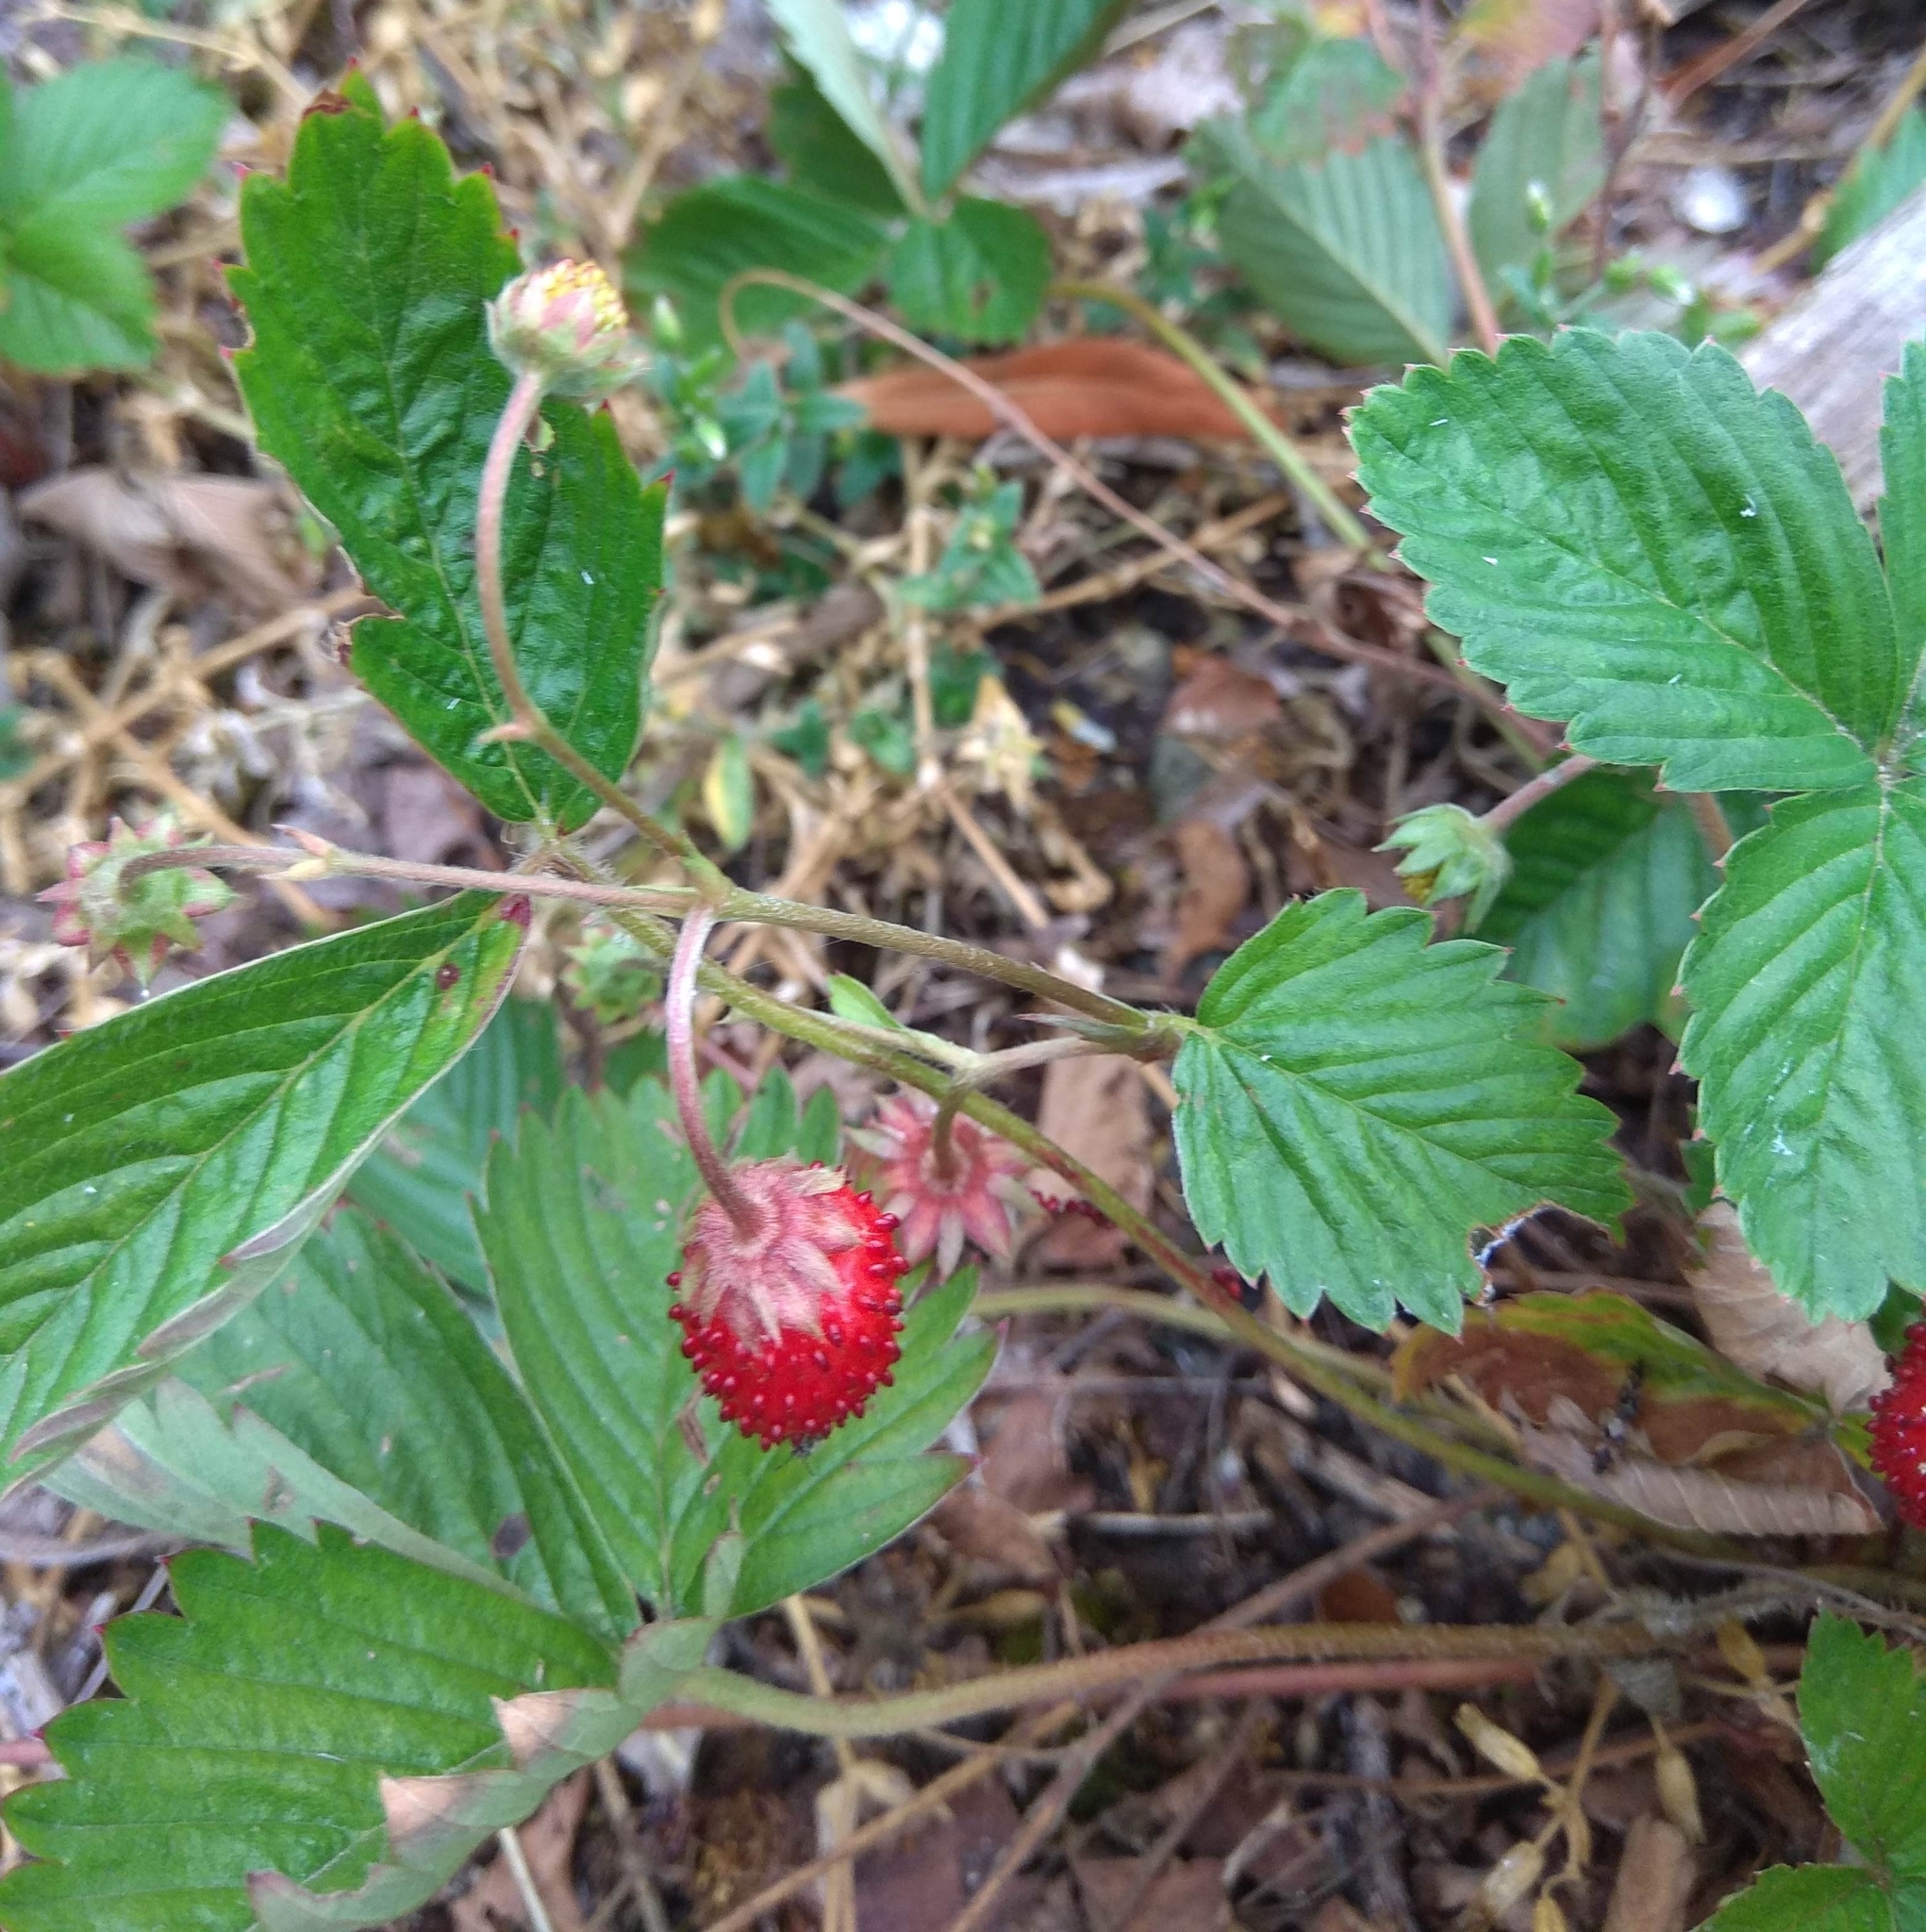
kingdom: Plantae
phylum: Tracheophyta
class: Magnoliopsida
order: Rosales
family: Rosaceae
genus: Fragaria
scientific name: Fragaria vesca
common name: Wild strawberry
